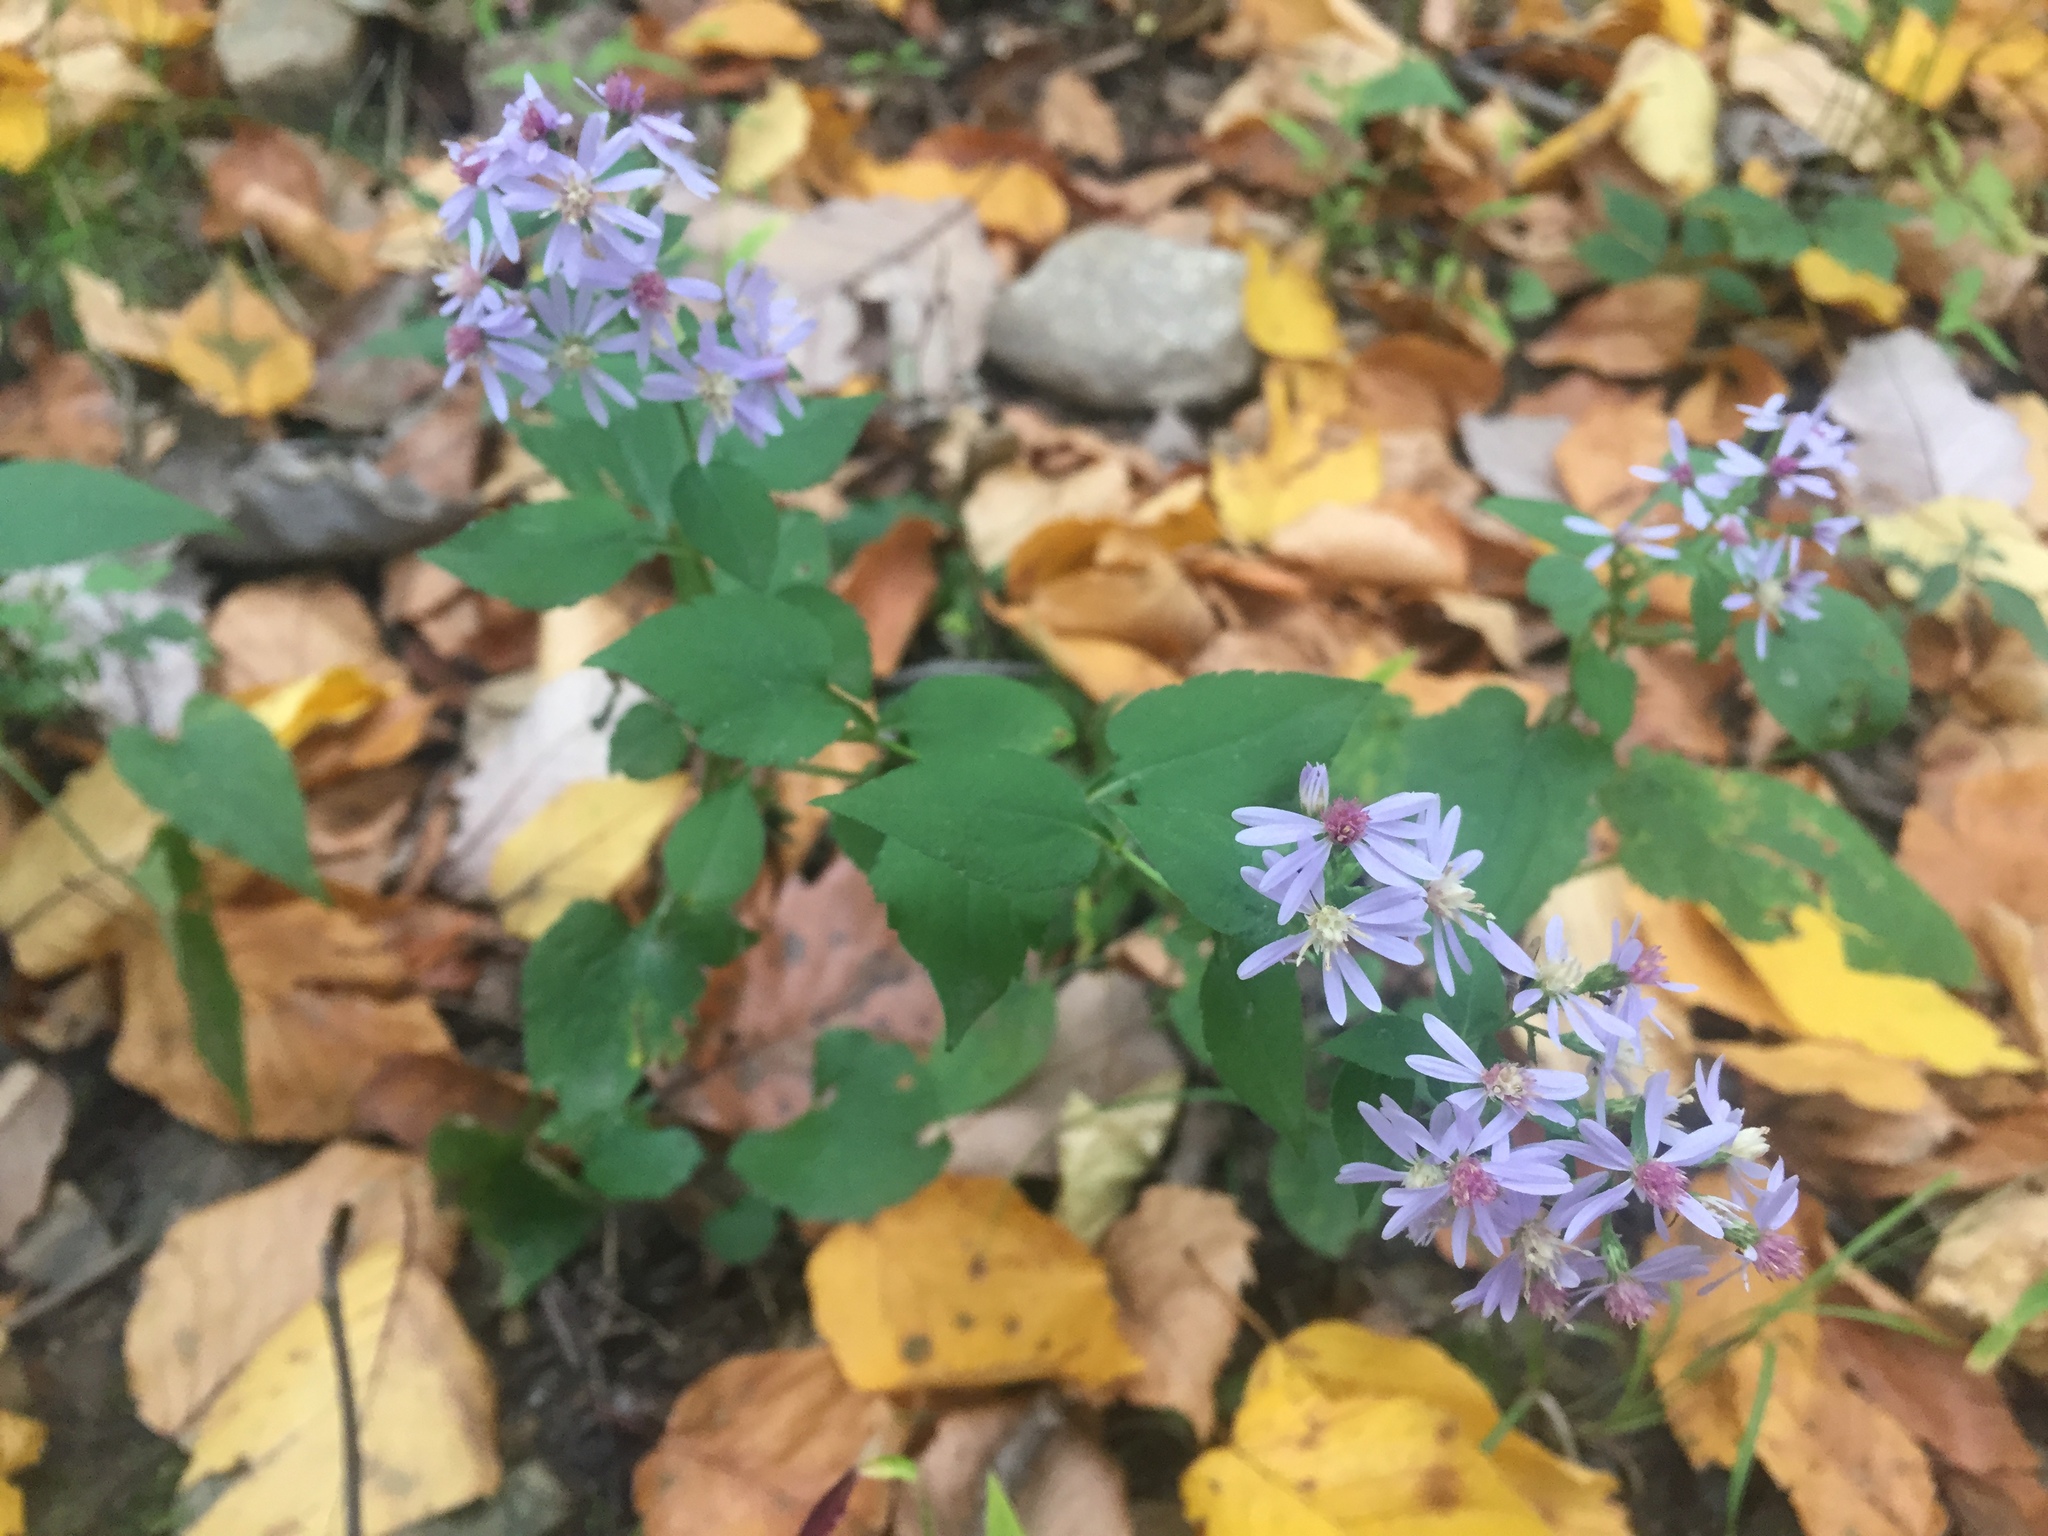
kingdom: Plantae
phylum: Tracheophyta
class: Magnoliopsida
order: Asterales
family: Asteraceae
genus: Symphyotrichum
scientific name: Symphyotrichum cordifolium
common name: Beeweed
